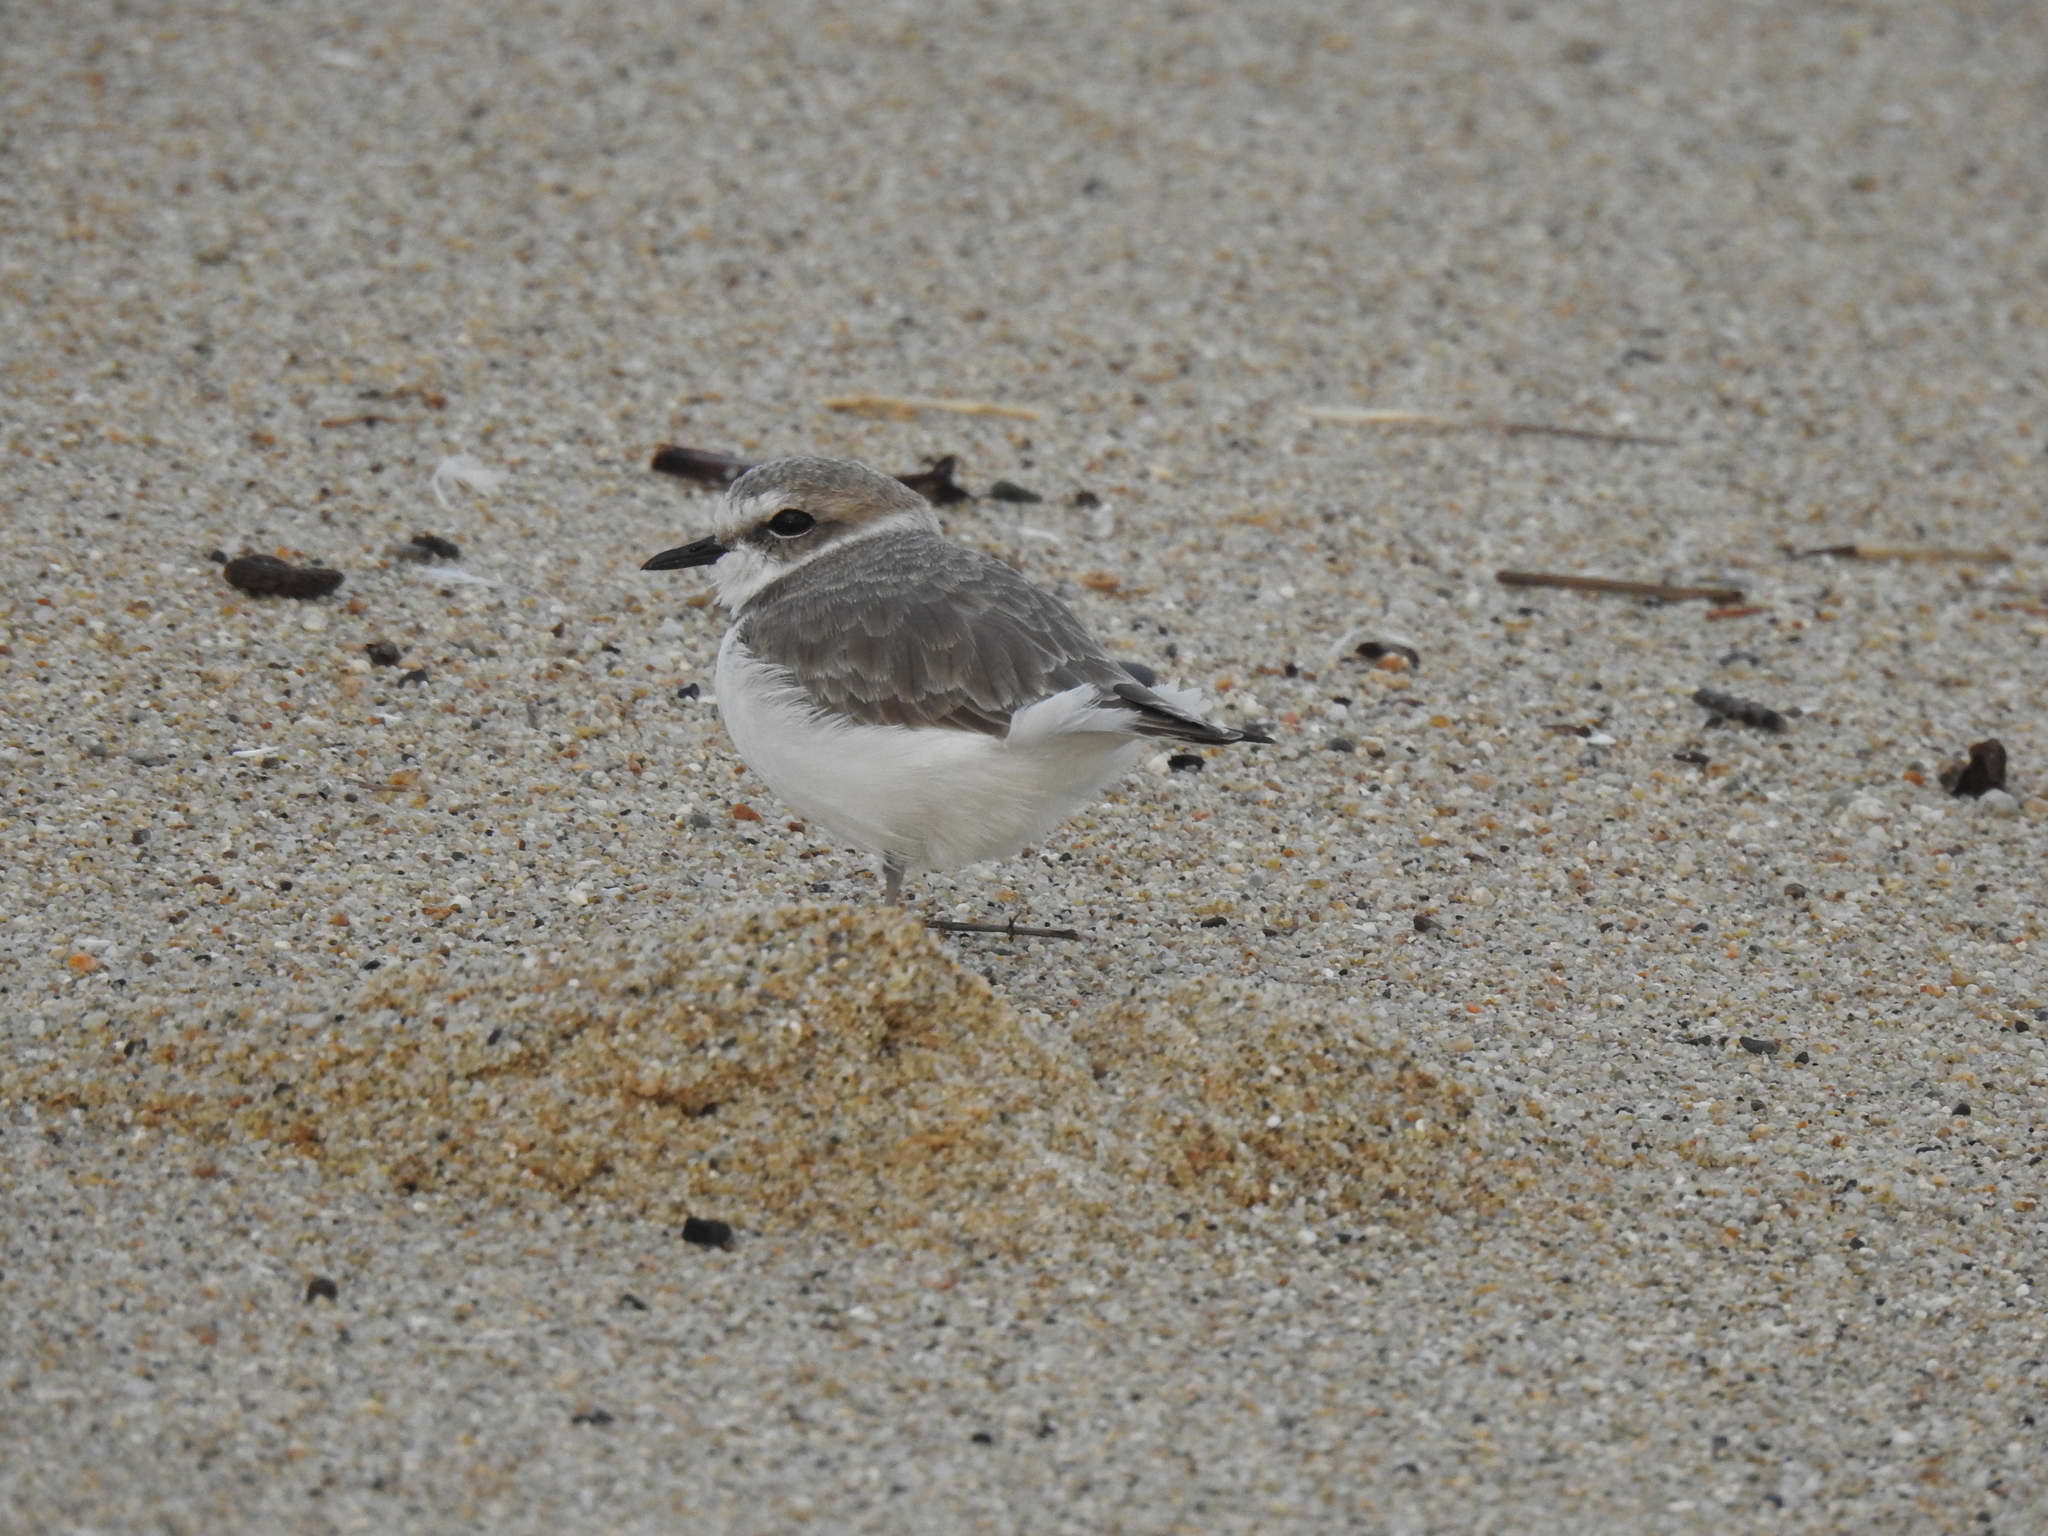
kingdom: Animalia
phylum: Chordata
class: Aves
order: Charadriiformes
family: Charadriidae
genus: Anarhynchus
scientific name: Anarhynchus
